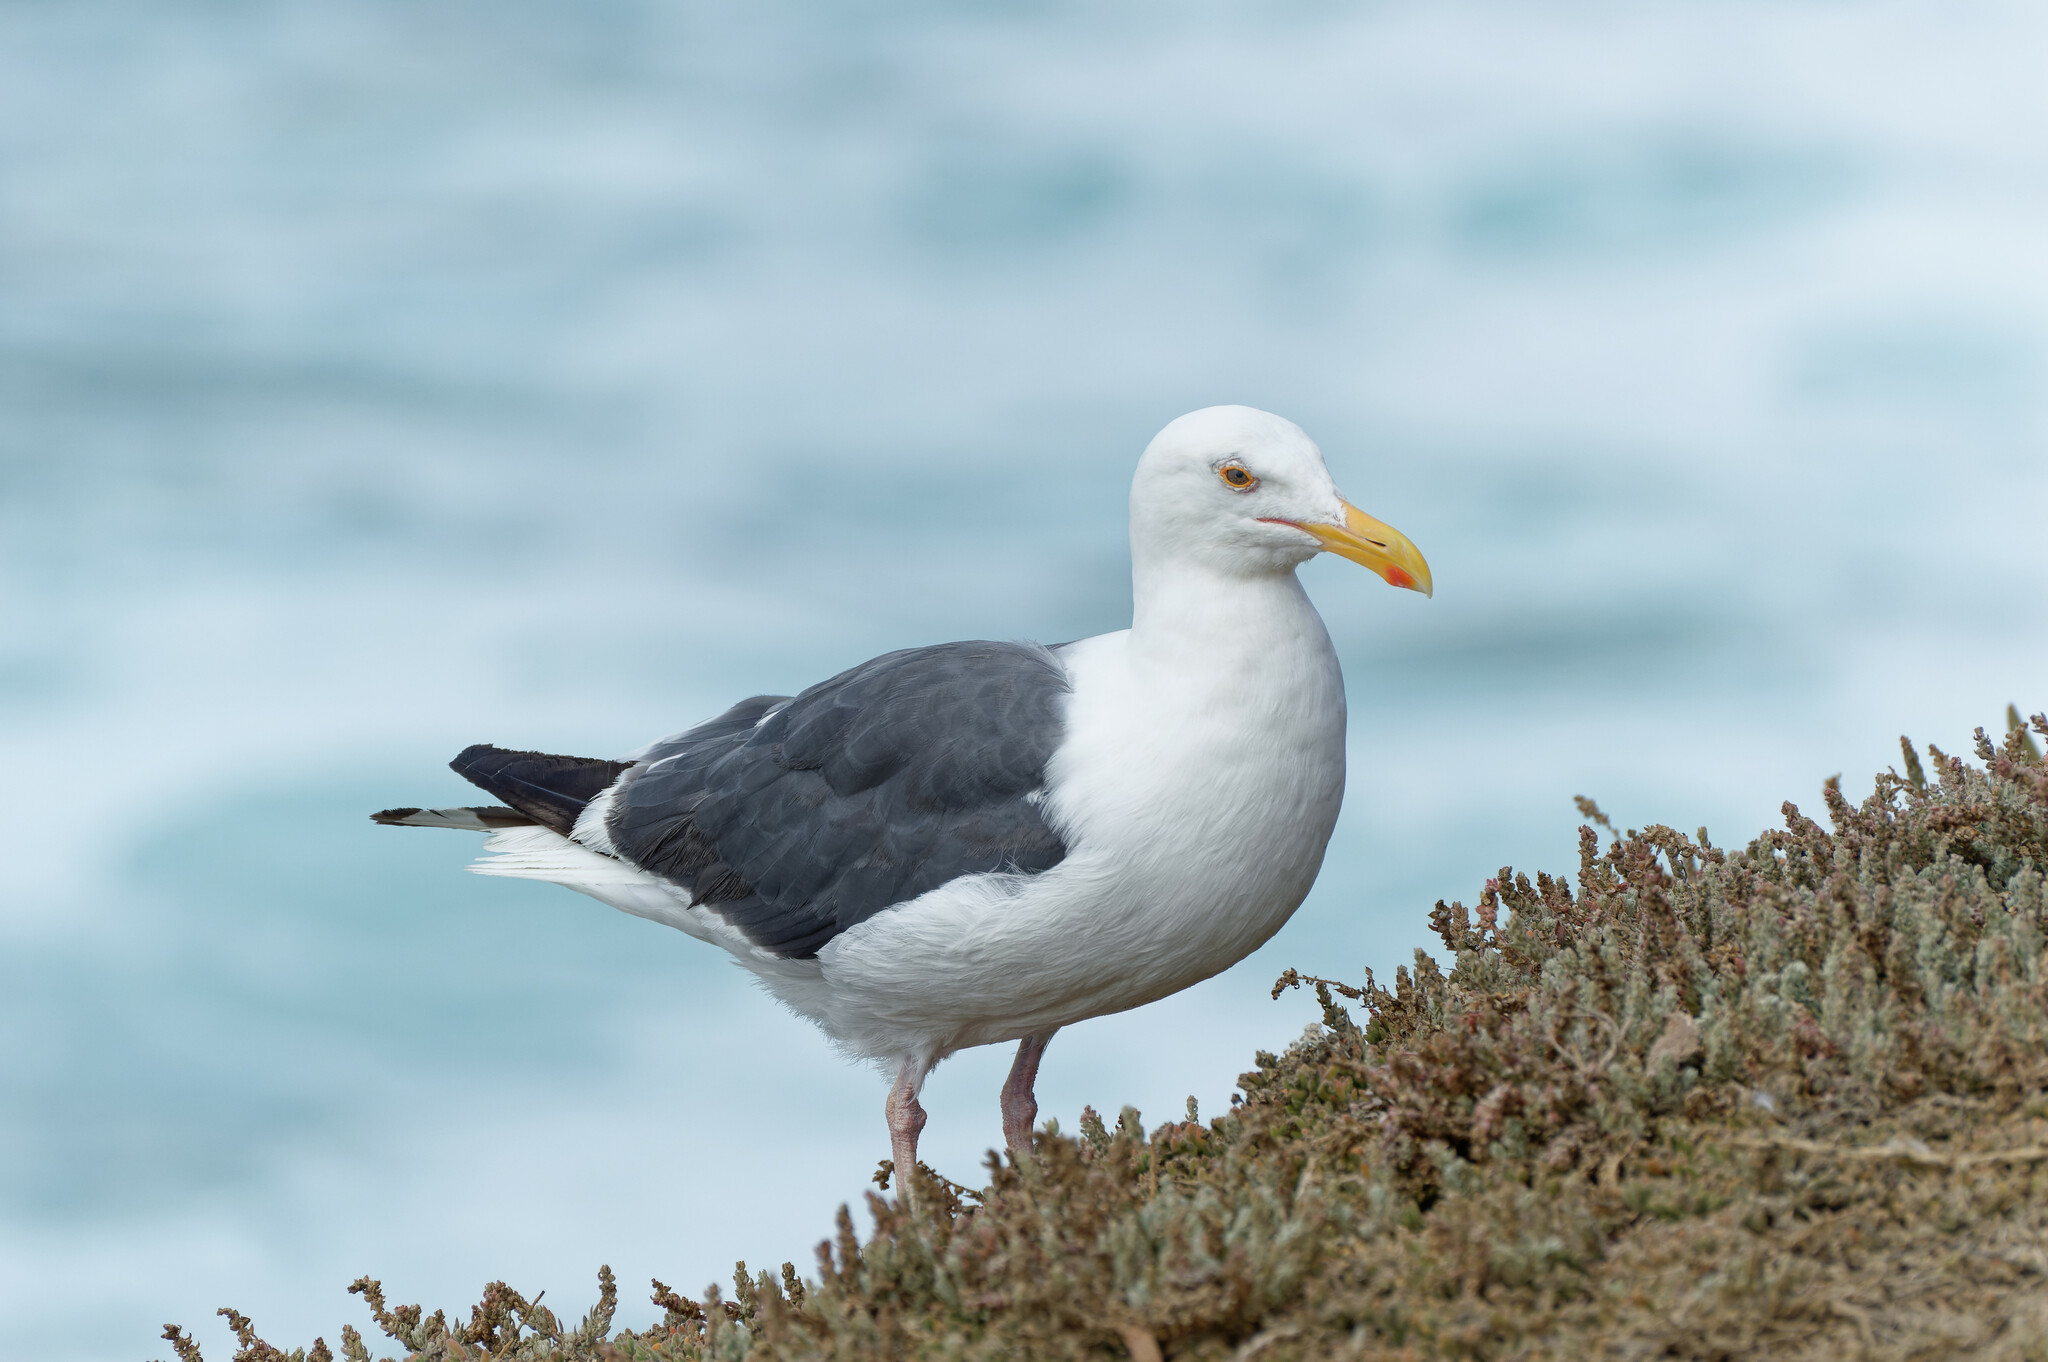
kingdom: Animalia
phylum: Chordata
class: Aves
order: Charadriiformes
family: Laridae
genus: Larus
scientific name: Larus occidentalis
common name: Western gull
